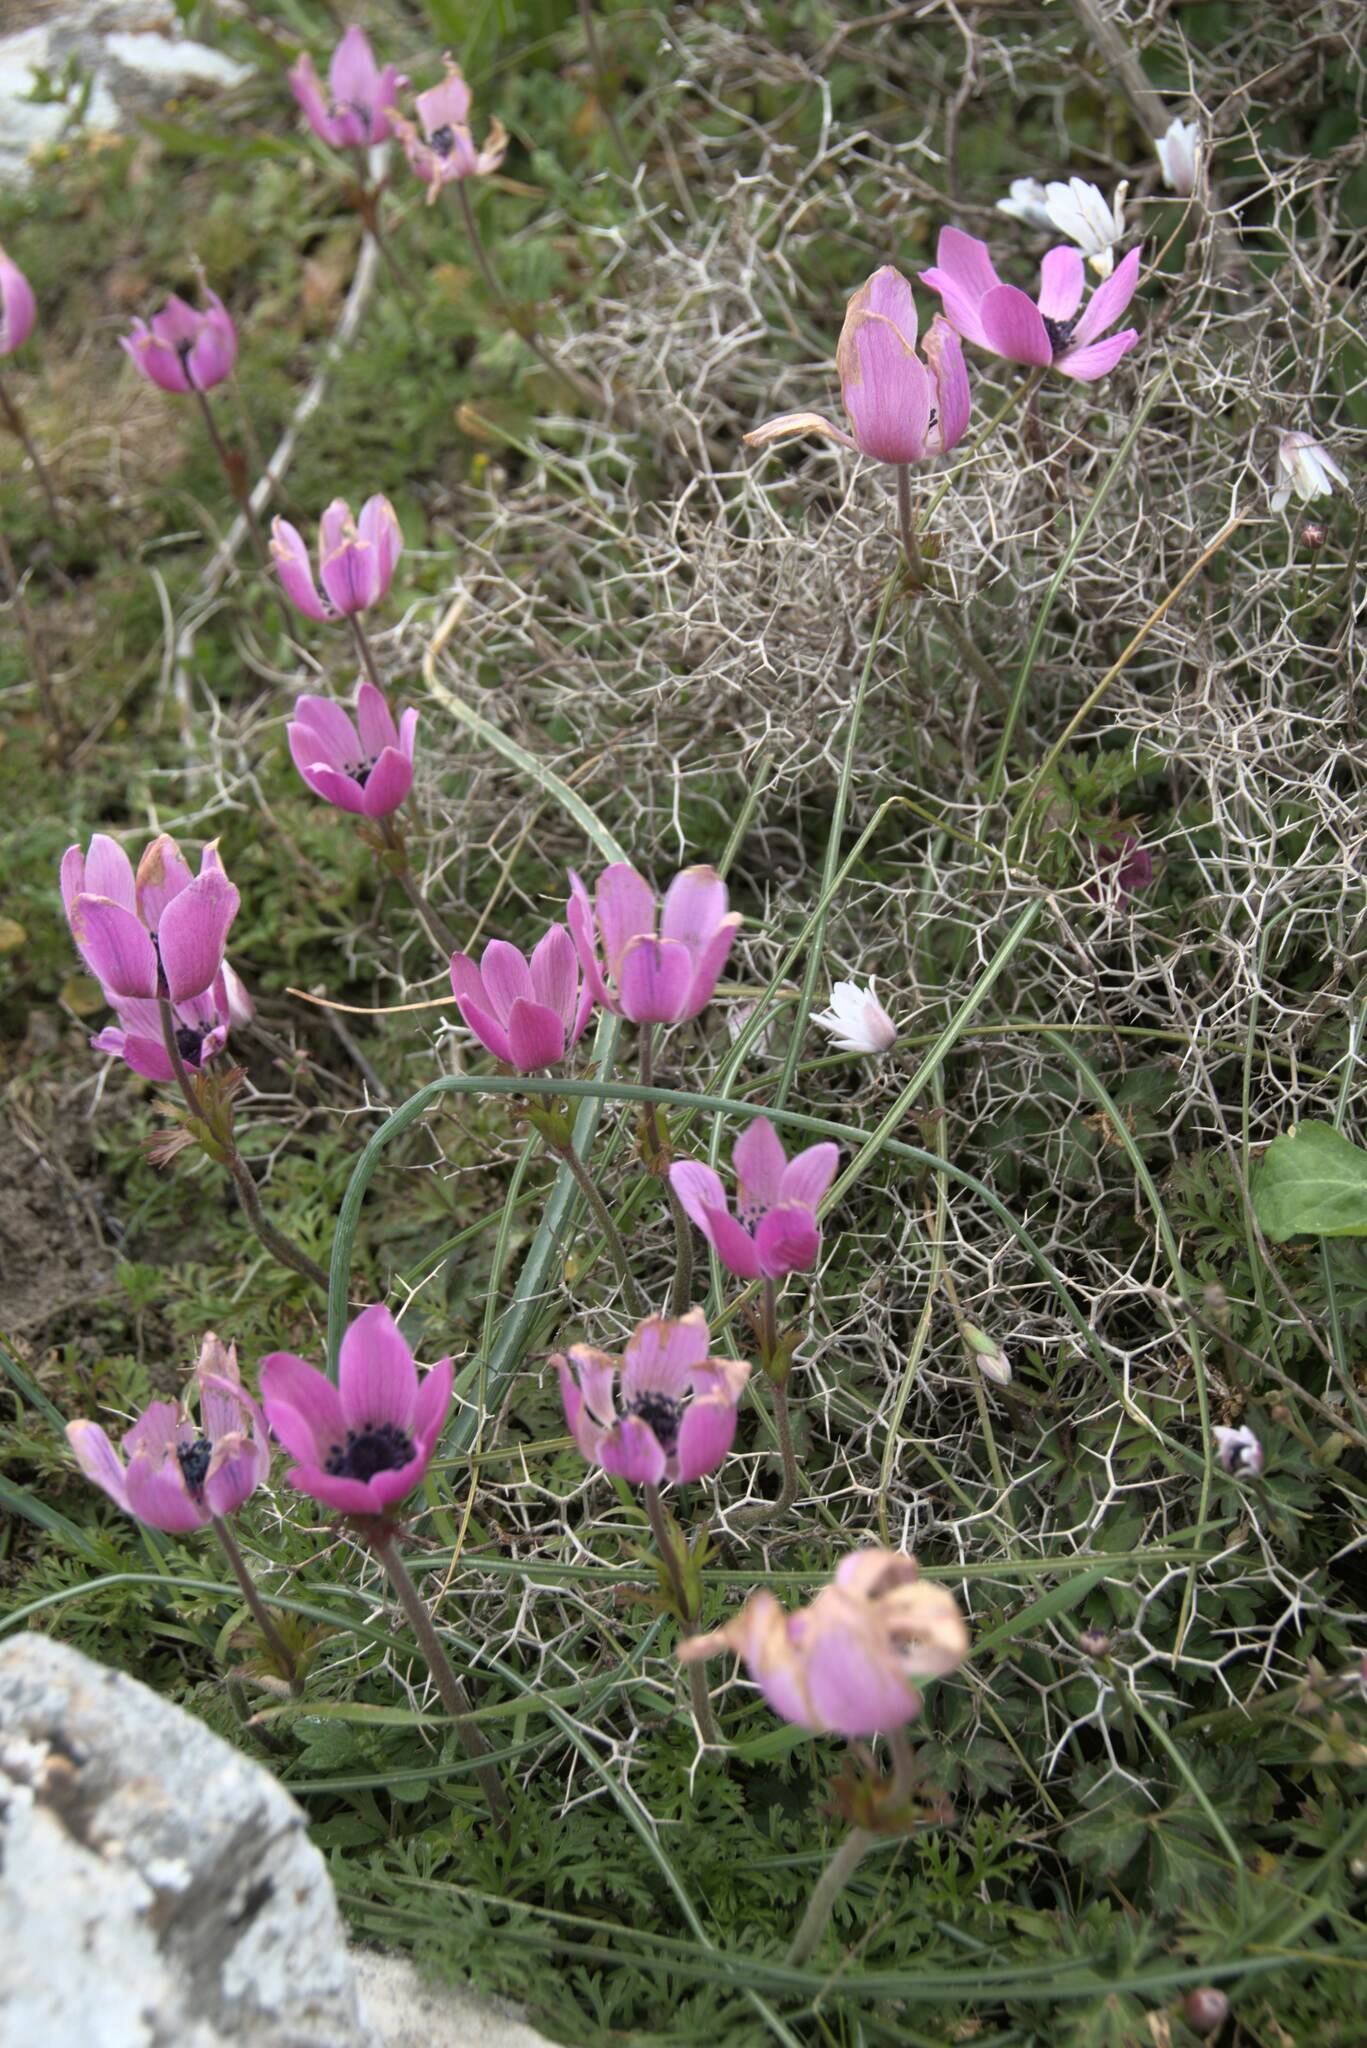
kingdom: Plantae
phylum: Tracheophyta
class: Magnoliopsida
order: Ranunculales
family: Ranunculaceae
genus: Anemone
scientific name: Anemone coronaria
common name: Poppy anemone
